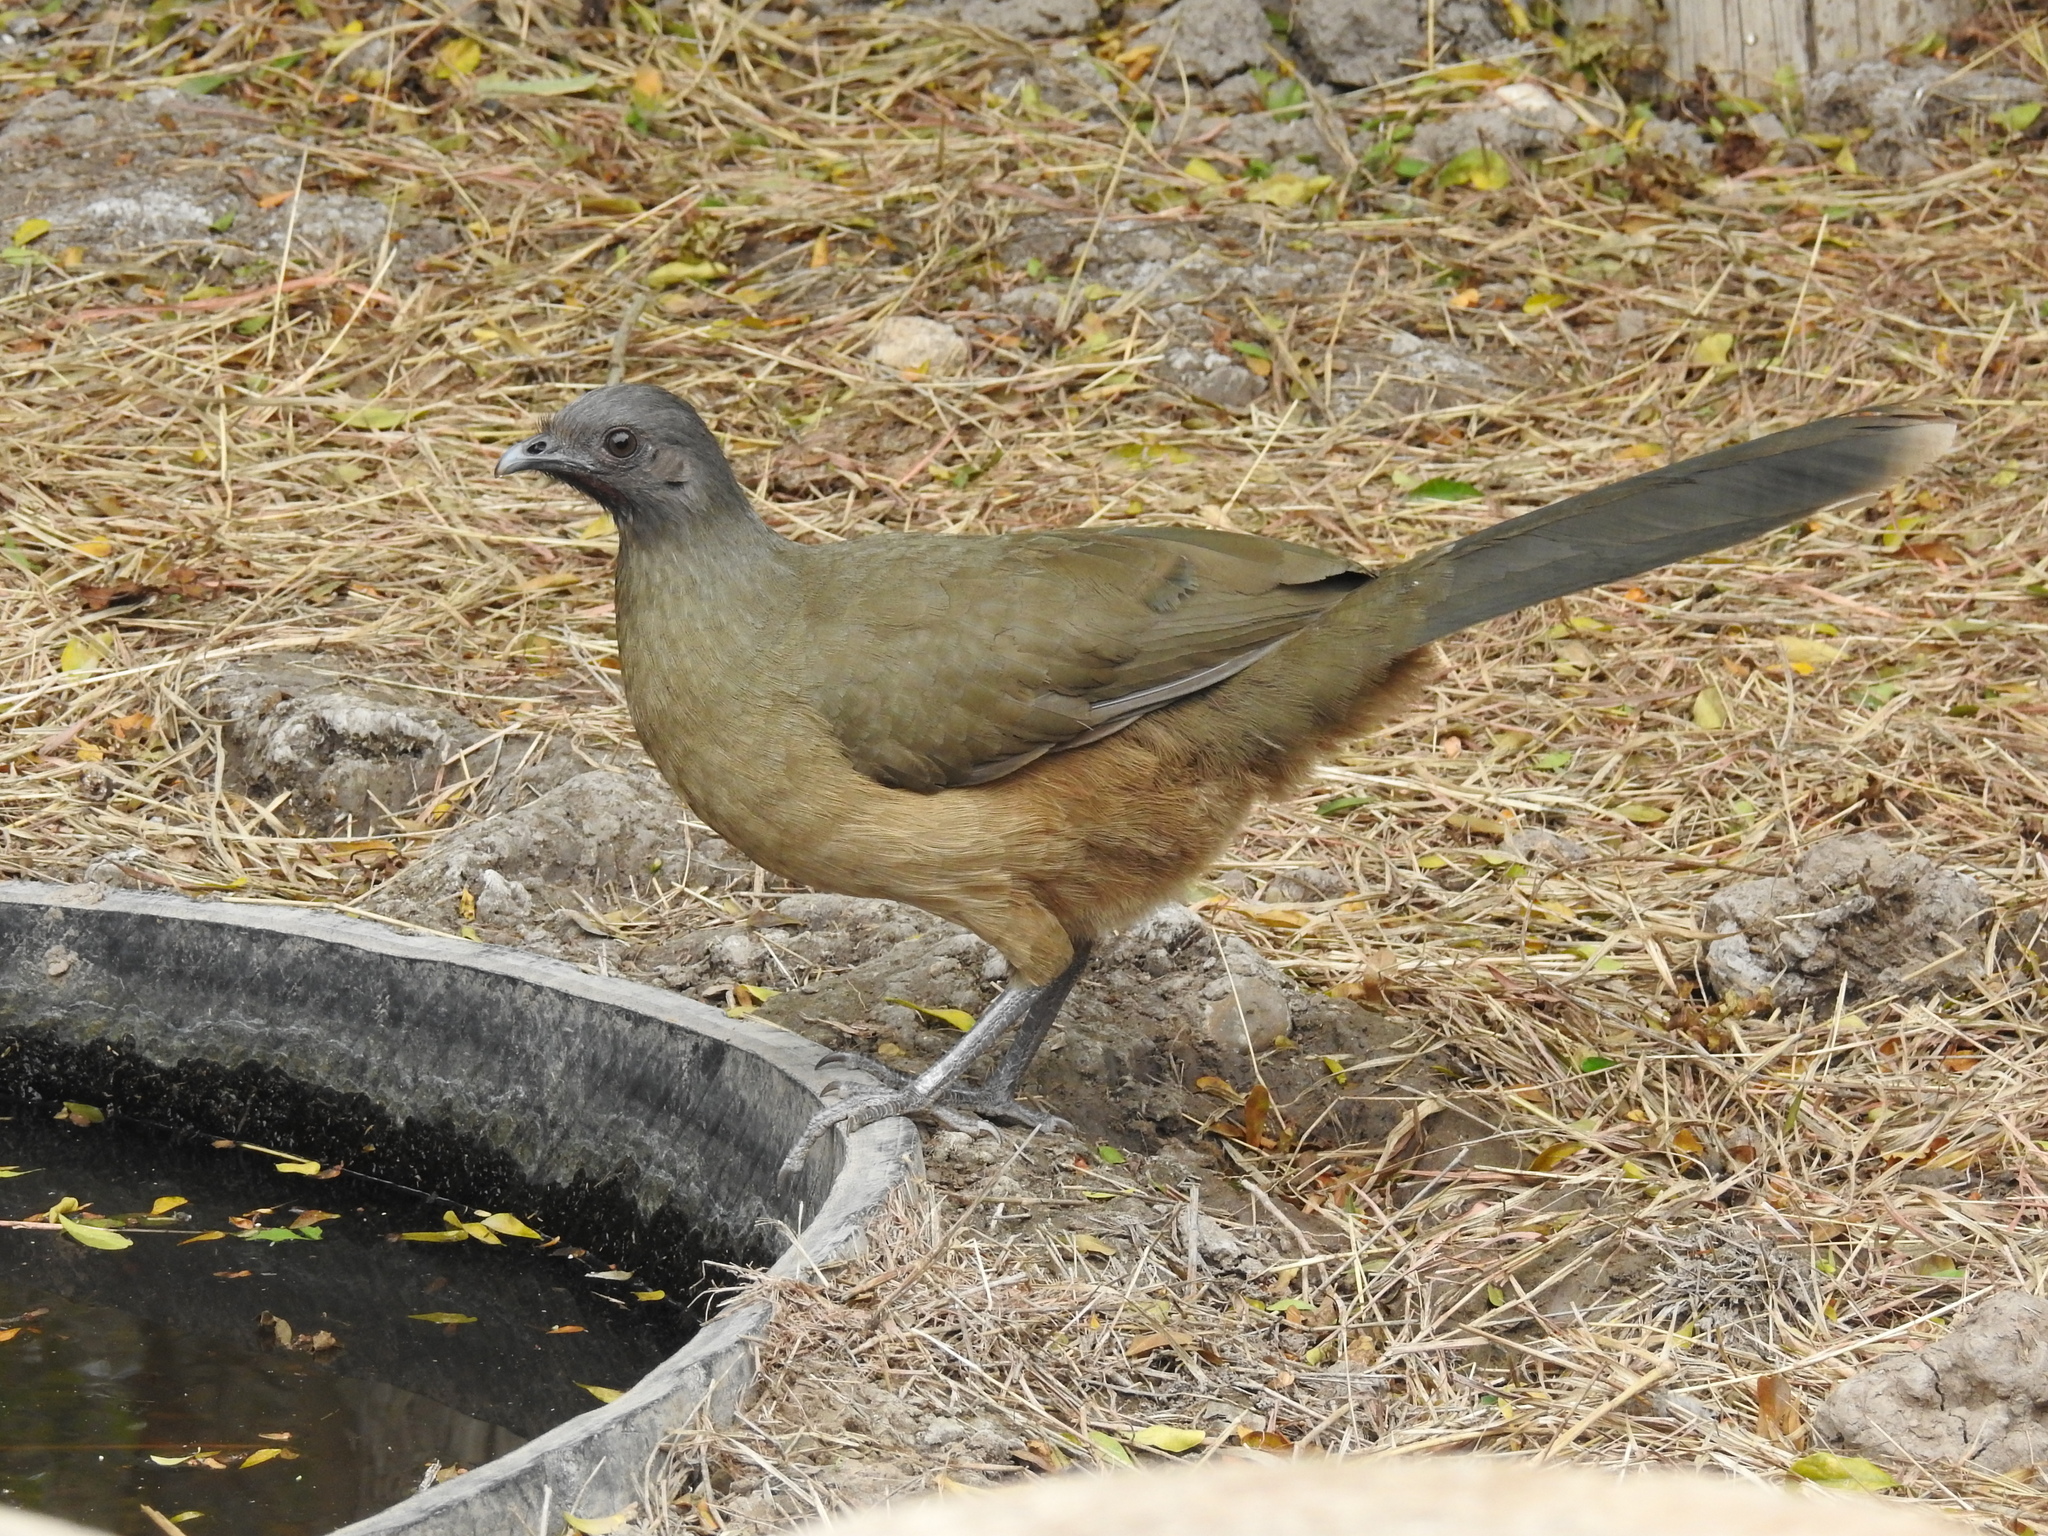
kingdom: Animalia
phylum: Chordata
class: Aves
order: Galliformes
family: Cracidae
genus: Ortalis
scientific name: Ortalis vetula
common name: Plain chachalaca
